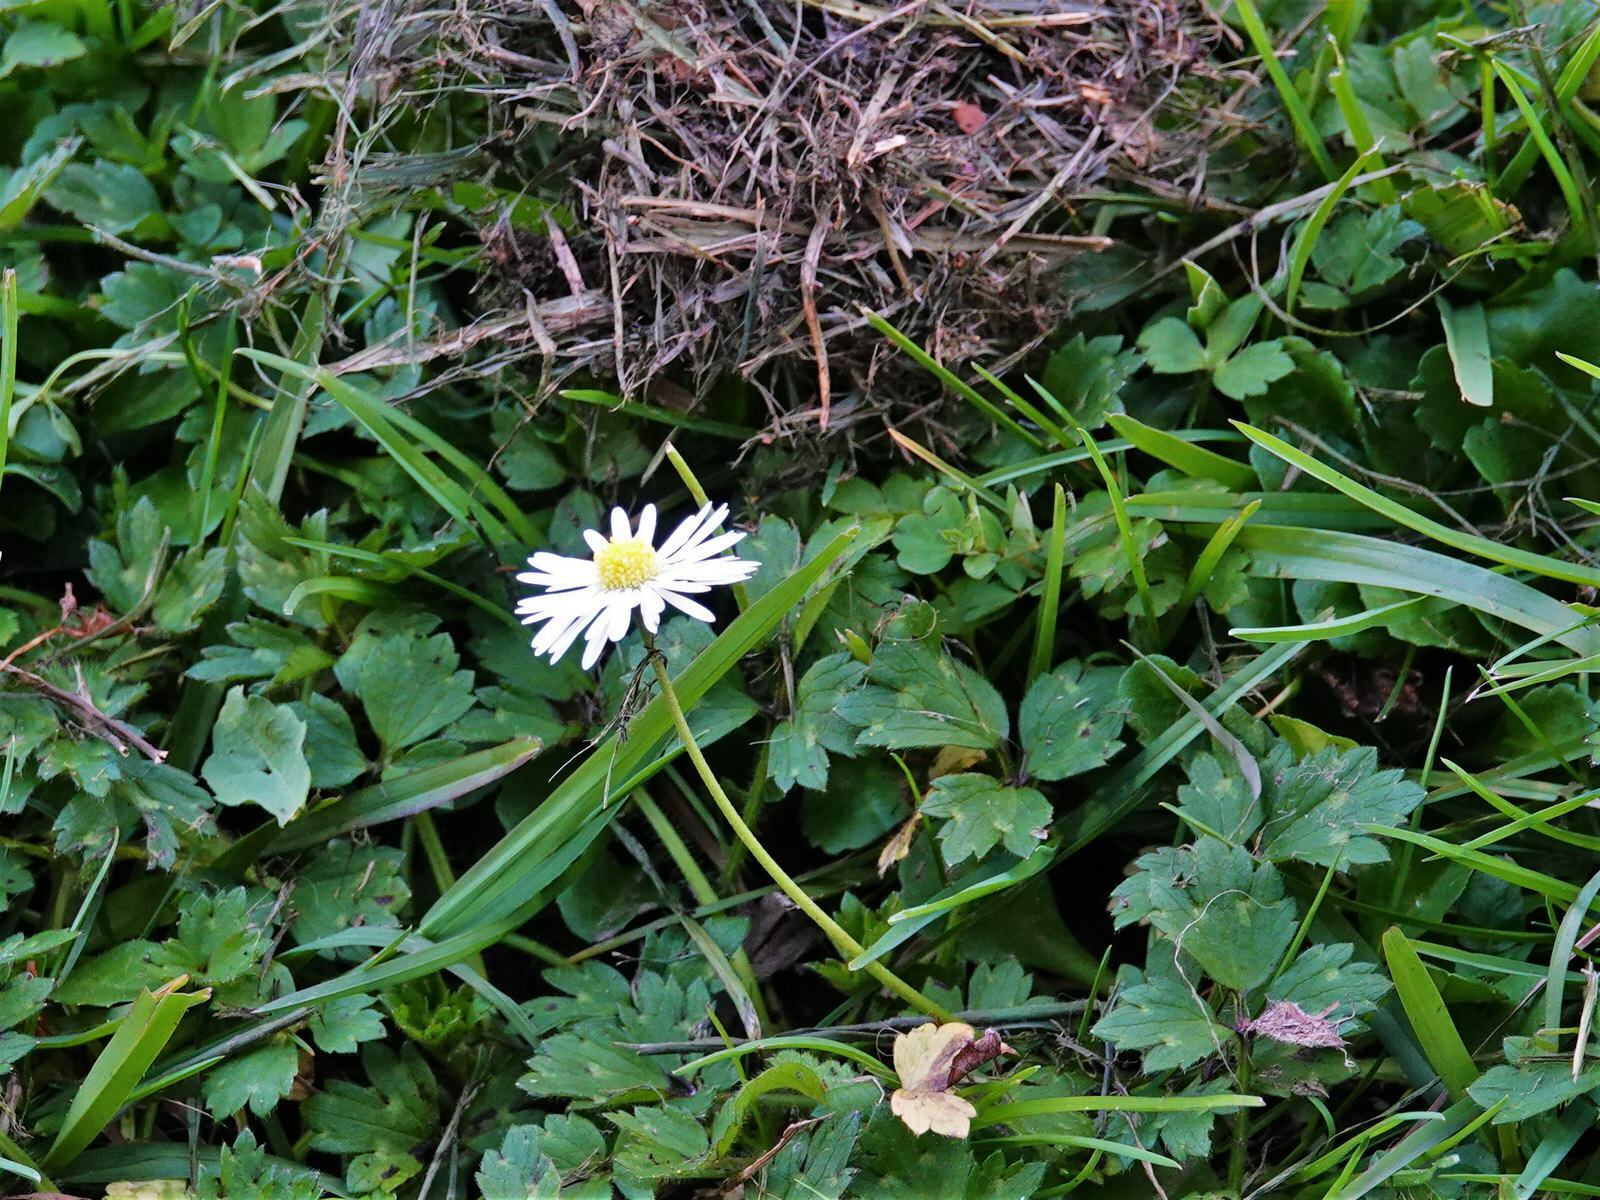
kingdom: Plantae
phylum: Tracheophyta
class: Magnoliopsida
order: Asterales
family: Asteraceae
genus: Bellis
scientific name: Bellis perennis
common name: Lawndaisy
